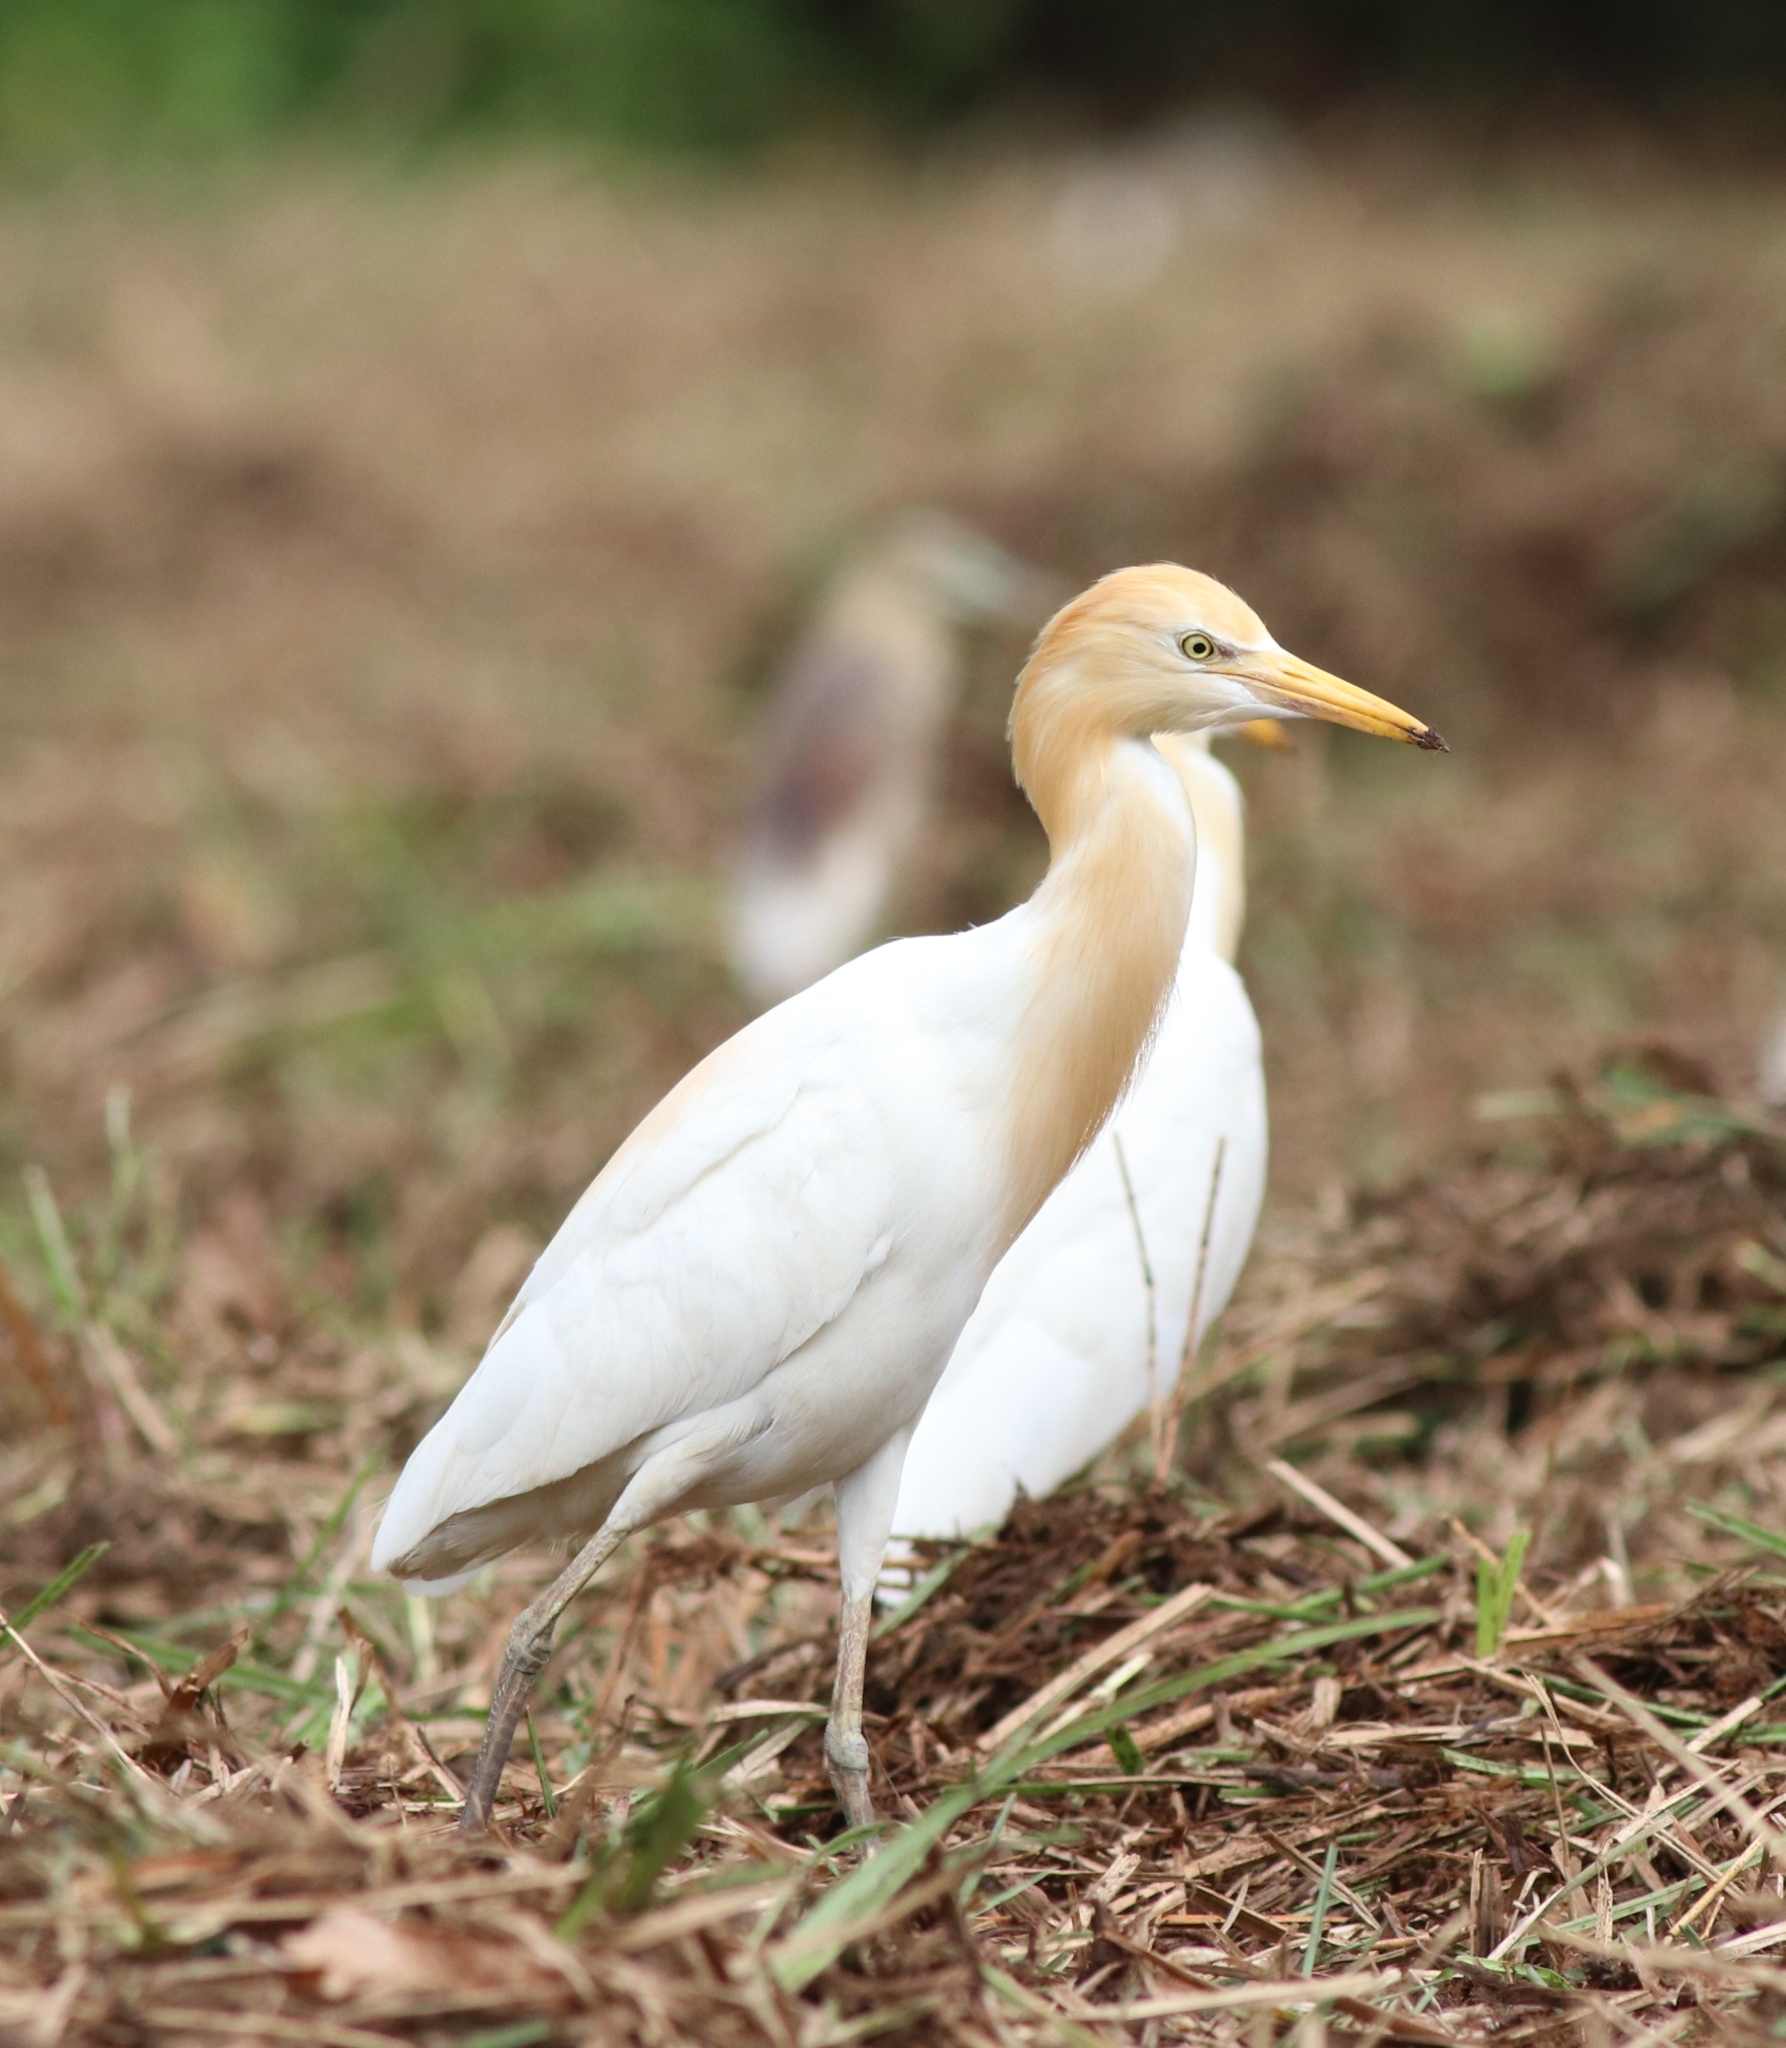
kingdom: Animalia
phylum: Chordata
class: Aves
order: Pelecaniformes
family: Ardeidae
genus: Bubulcus
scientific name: Bubulcus coromandus
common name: Eastern cattle egret
